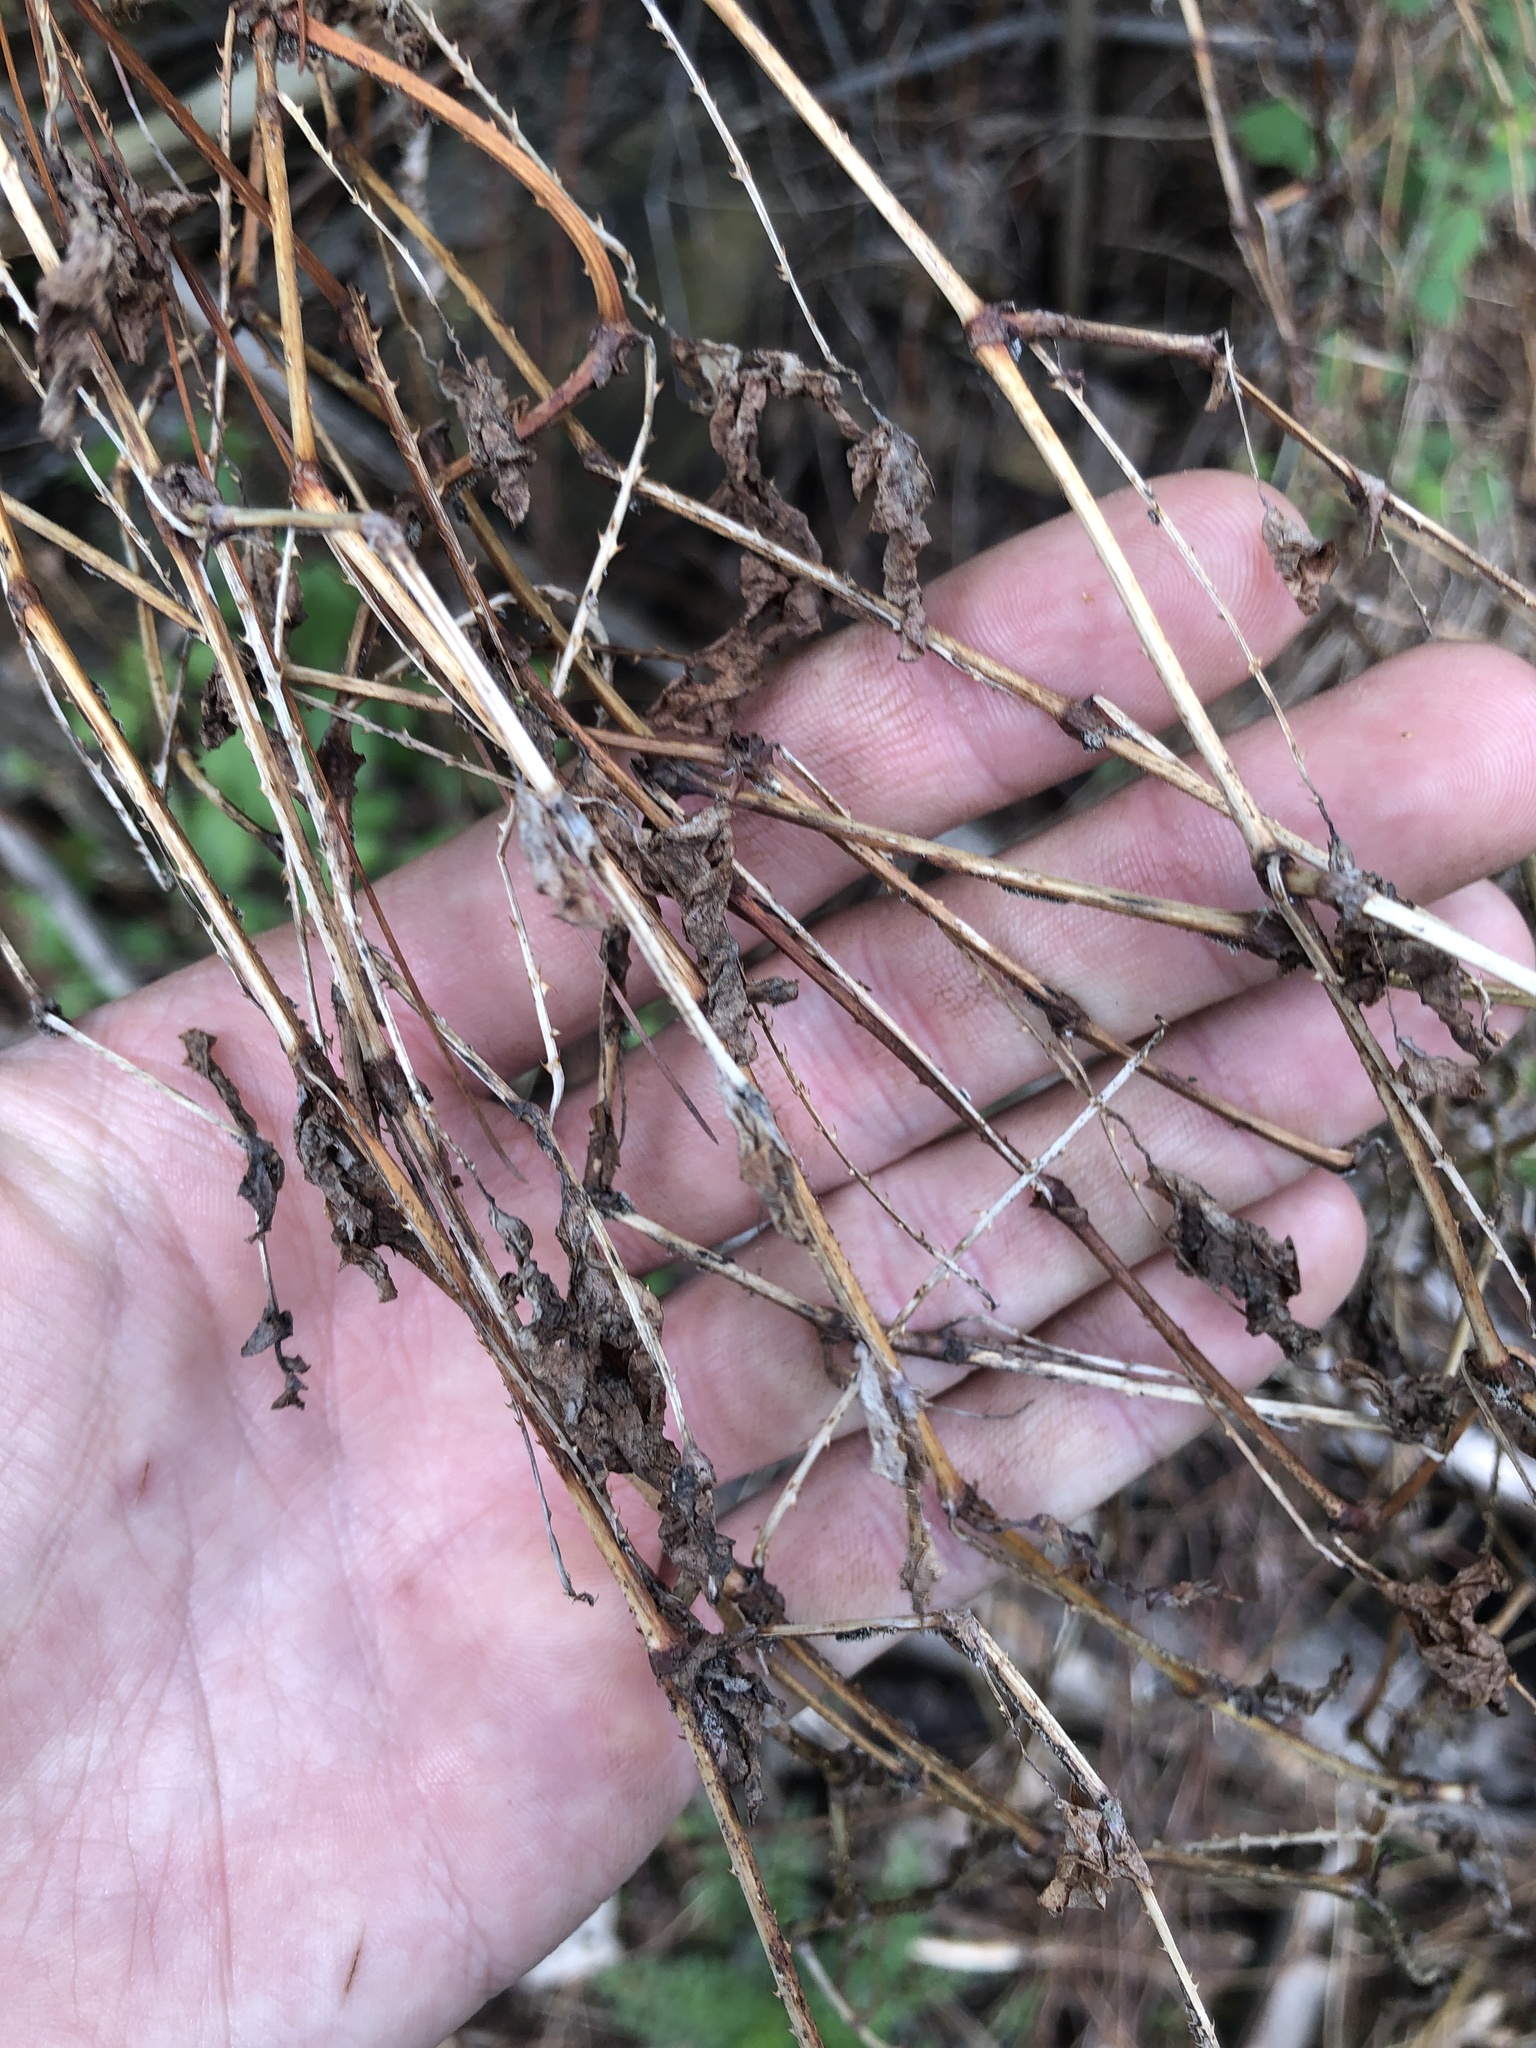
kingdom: Plantae
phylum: Tracheophyta
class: Magnoliopsida
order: Caryophyllales
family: Polygonaceae
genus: Persicaria
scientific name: Persicaria perfoliata
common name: Asiatic tearthumb
